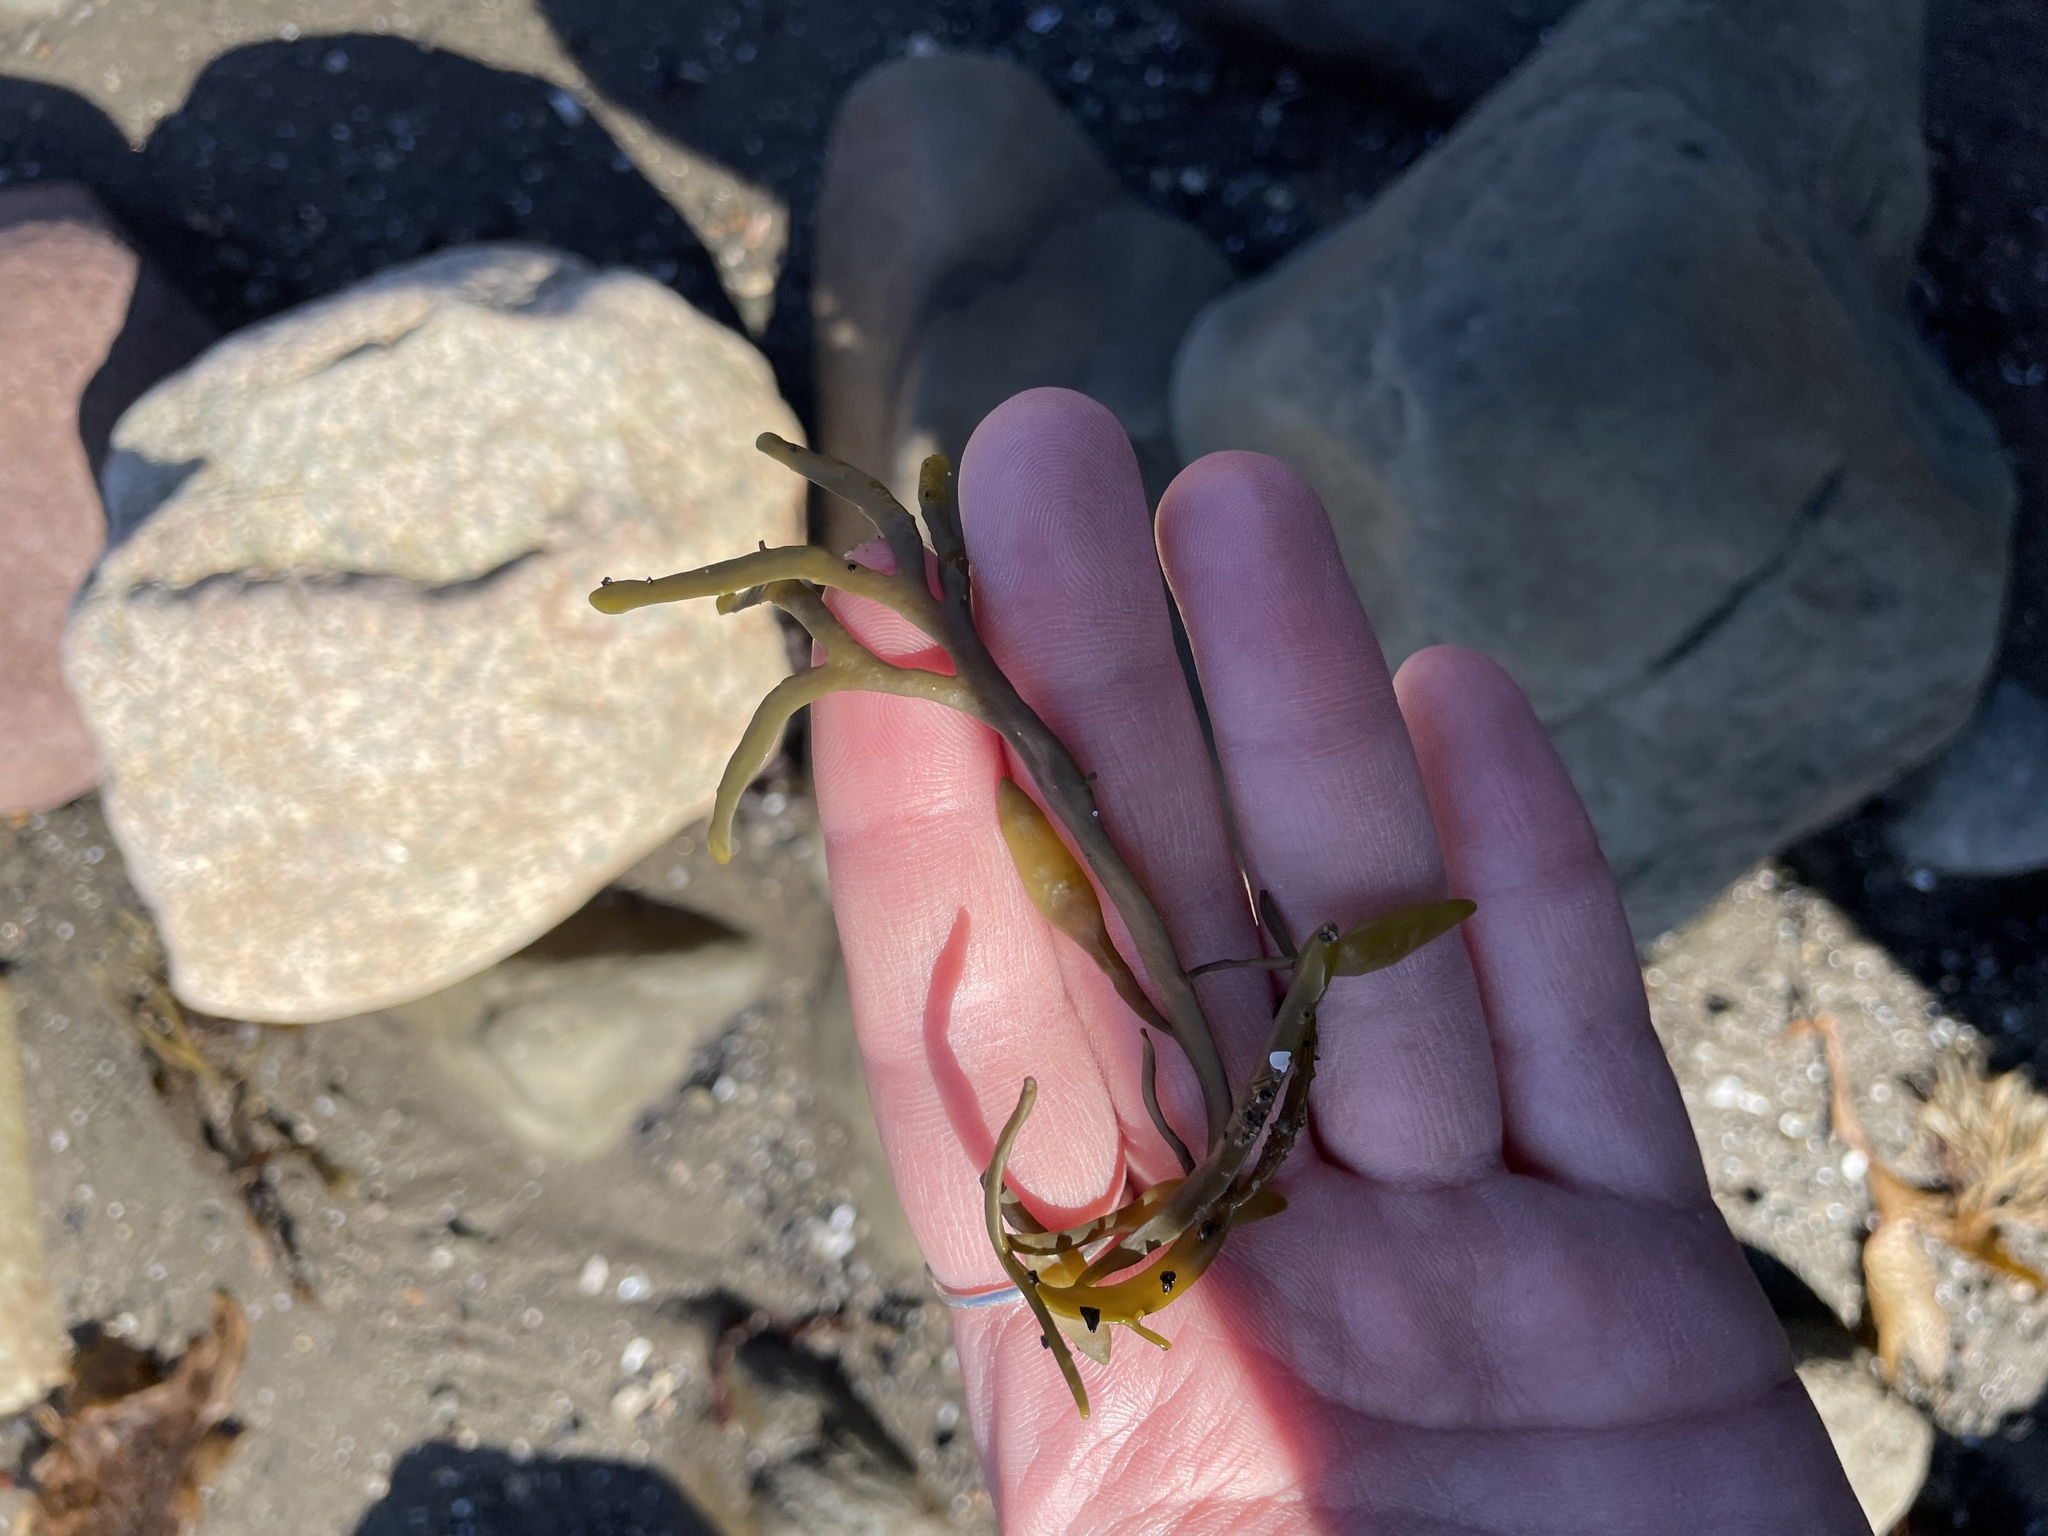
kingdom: Chromista
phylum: Ochrophyta
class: Phaeophyceae
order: Fucales
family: Fucaceae
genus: Ascophyllum
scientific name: Ascophyllum nodosum
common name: Knotted wrack
